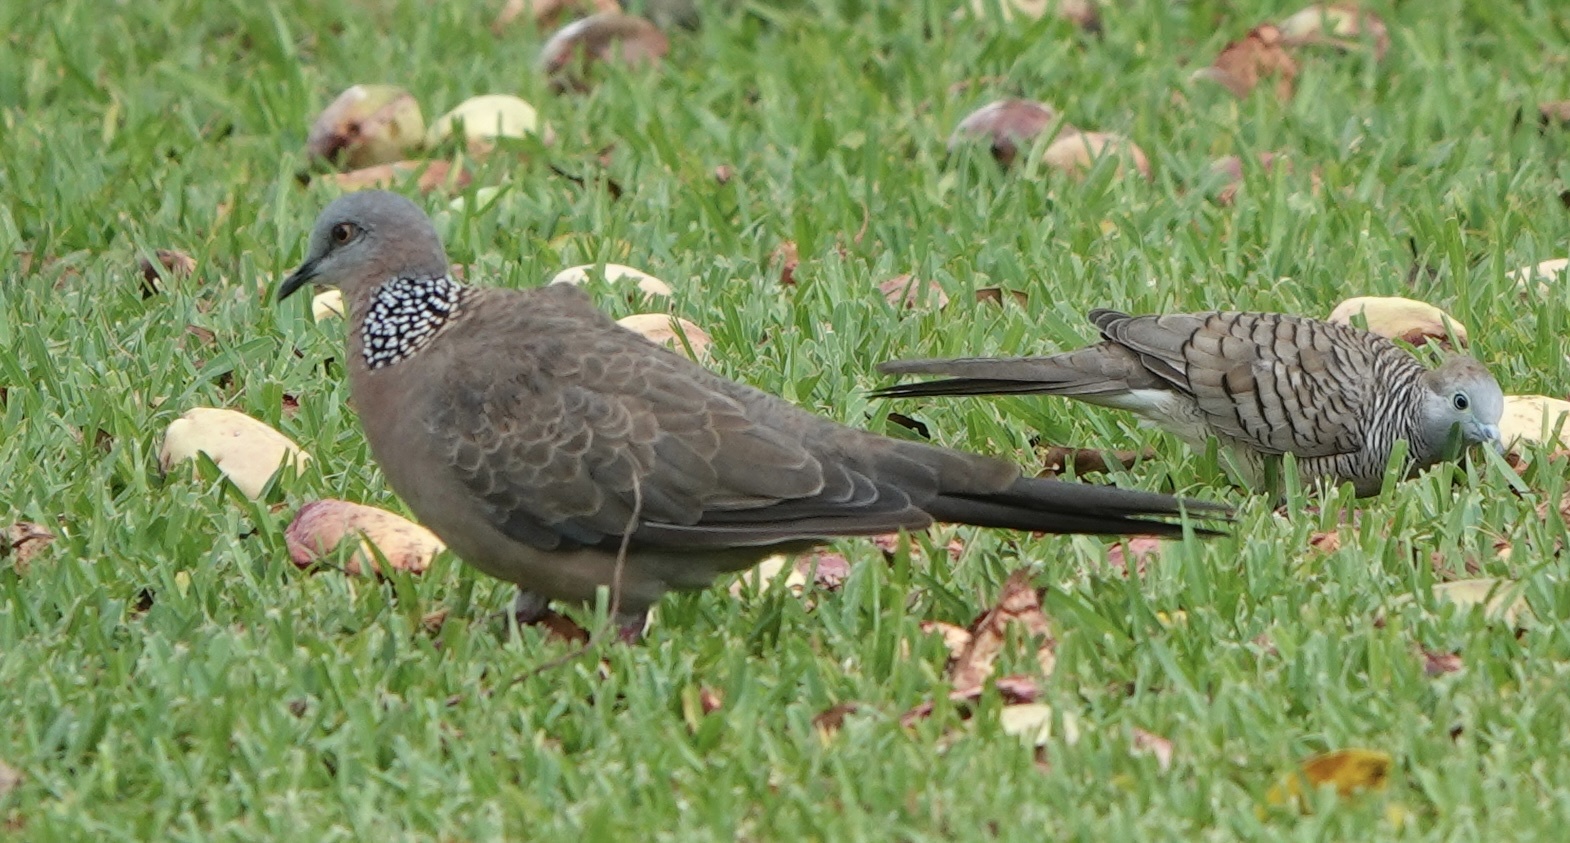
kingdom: Animalia
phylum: Chordata
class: Aves
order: Columbiformes
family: Columbidae
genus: Spilopelia
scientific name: Spilopelia chinensis
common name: Spotted dove
